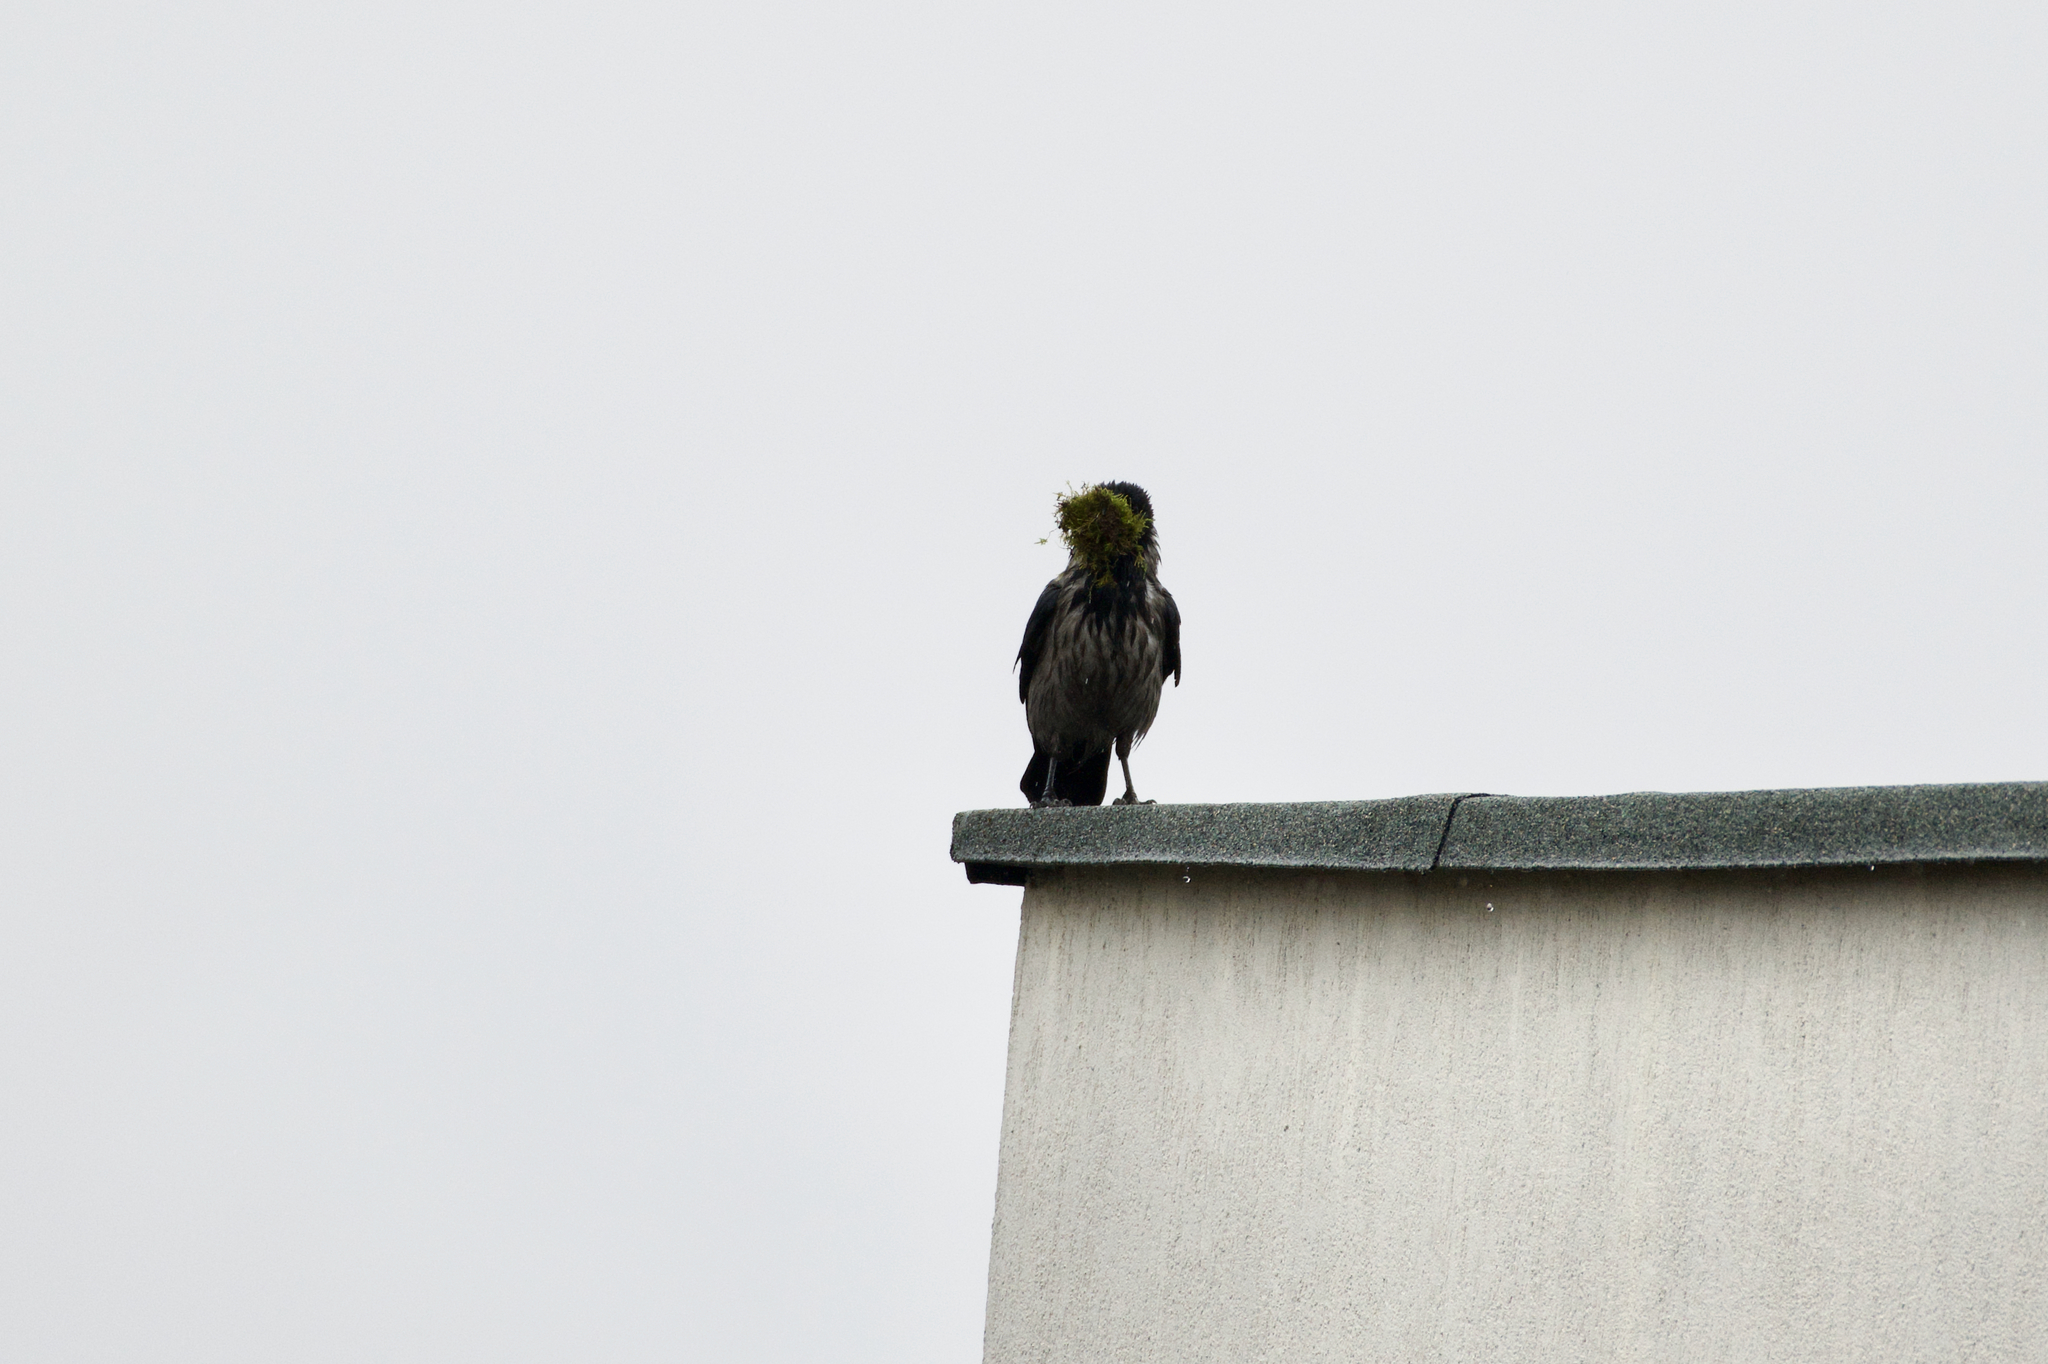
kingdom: Animalia
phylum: Chordata
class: Aves
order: Passeriformes
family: Corvidae
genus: Corvus
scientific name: Corvus cornix
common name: Hooded crow
